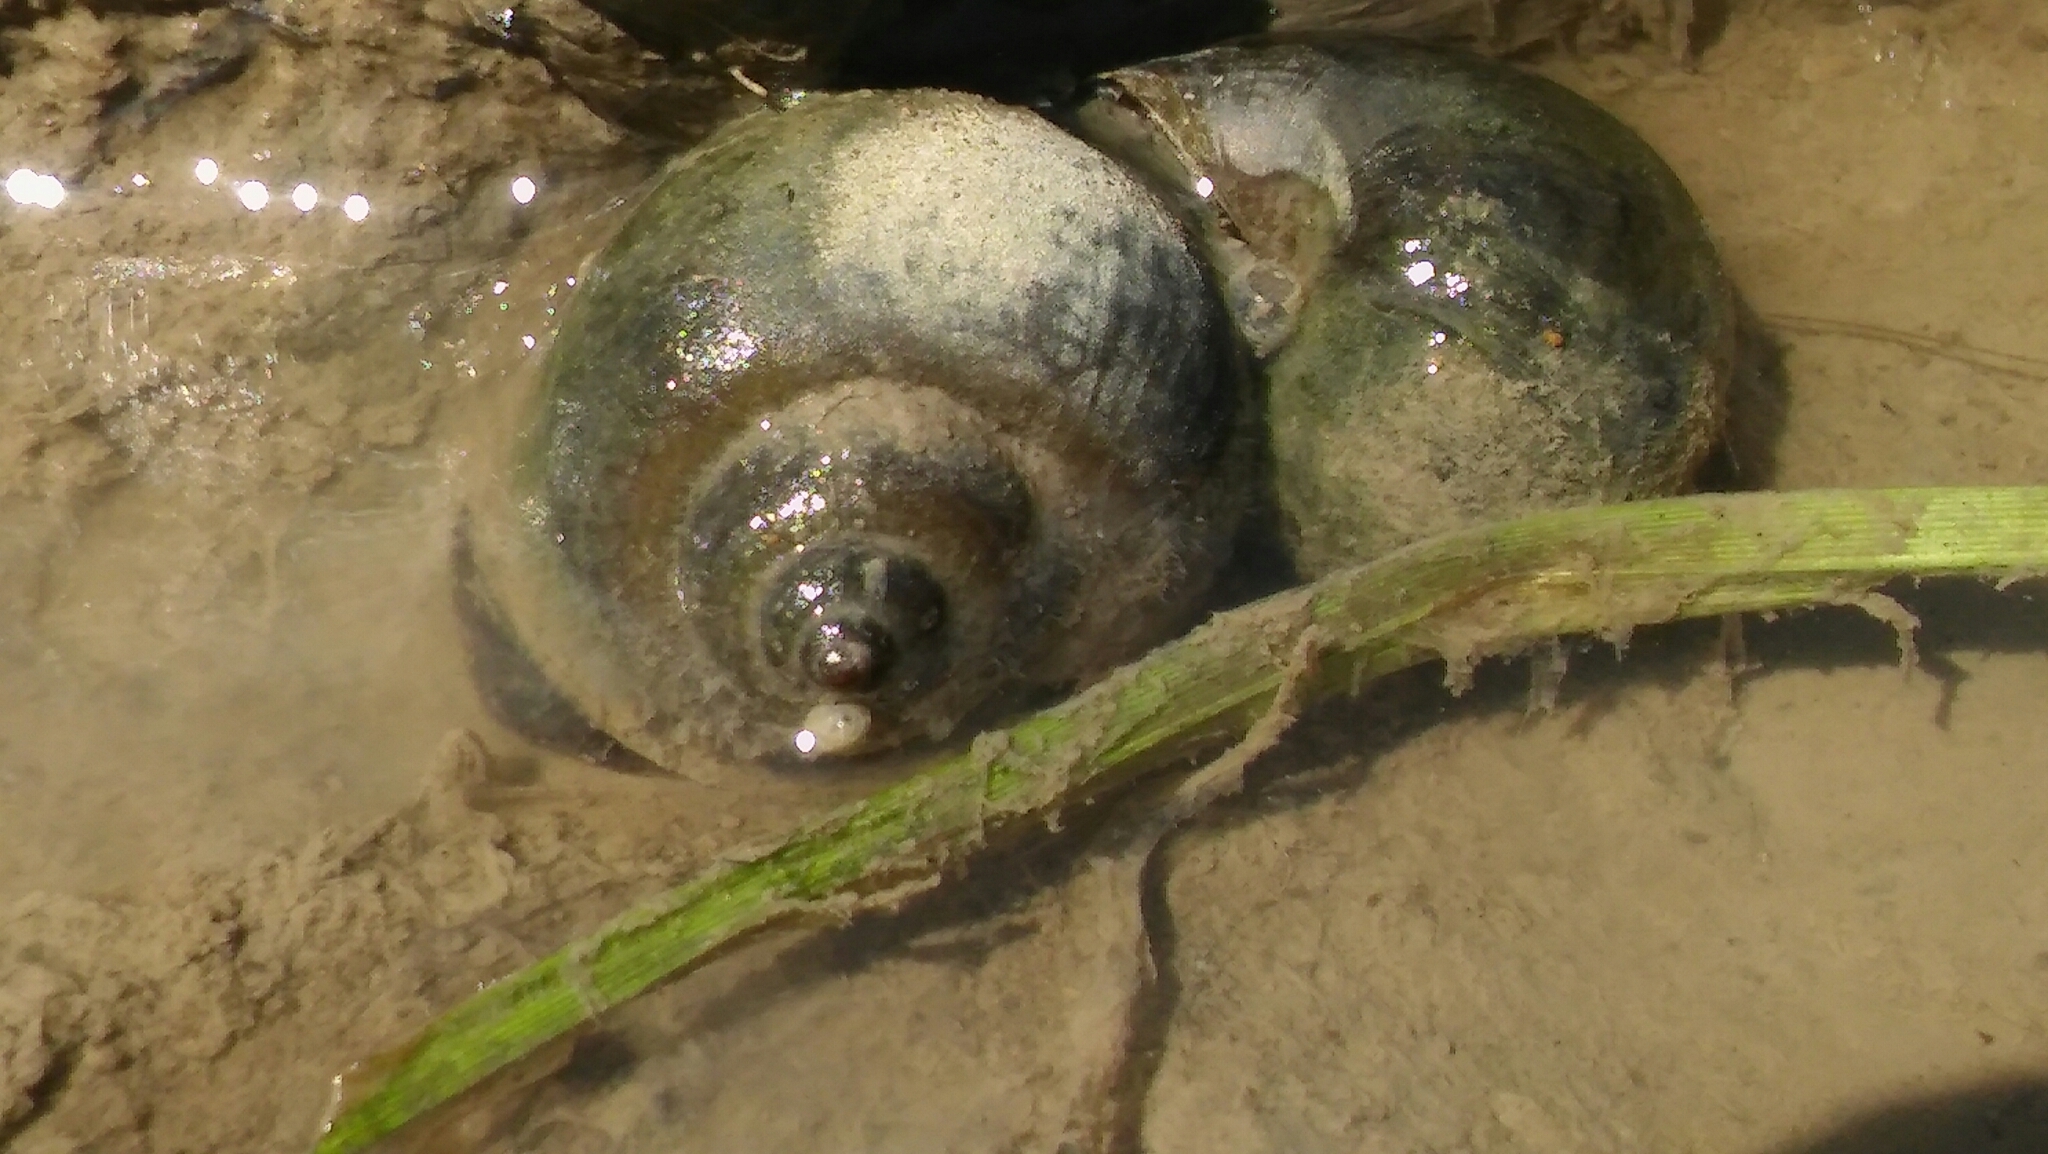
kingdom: Animalia
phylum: Mollusca
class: Gastropoda
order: Architaenioglossa
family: Ampullariidae
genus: Pomacea
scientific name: Pomacea canaliculata
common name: Channeled applesnail
